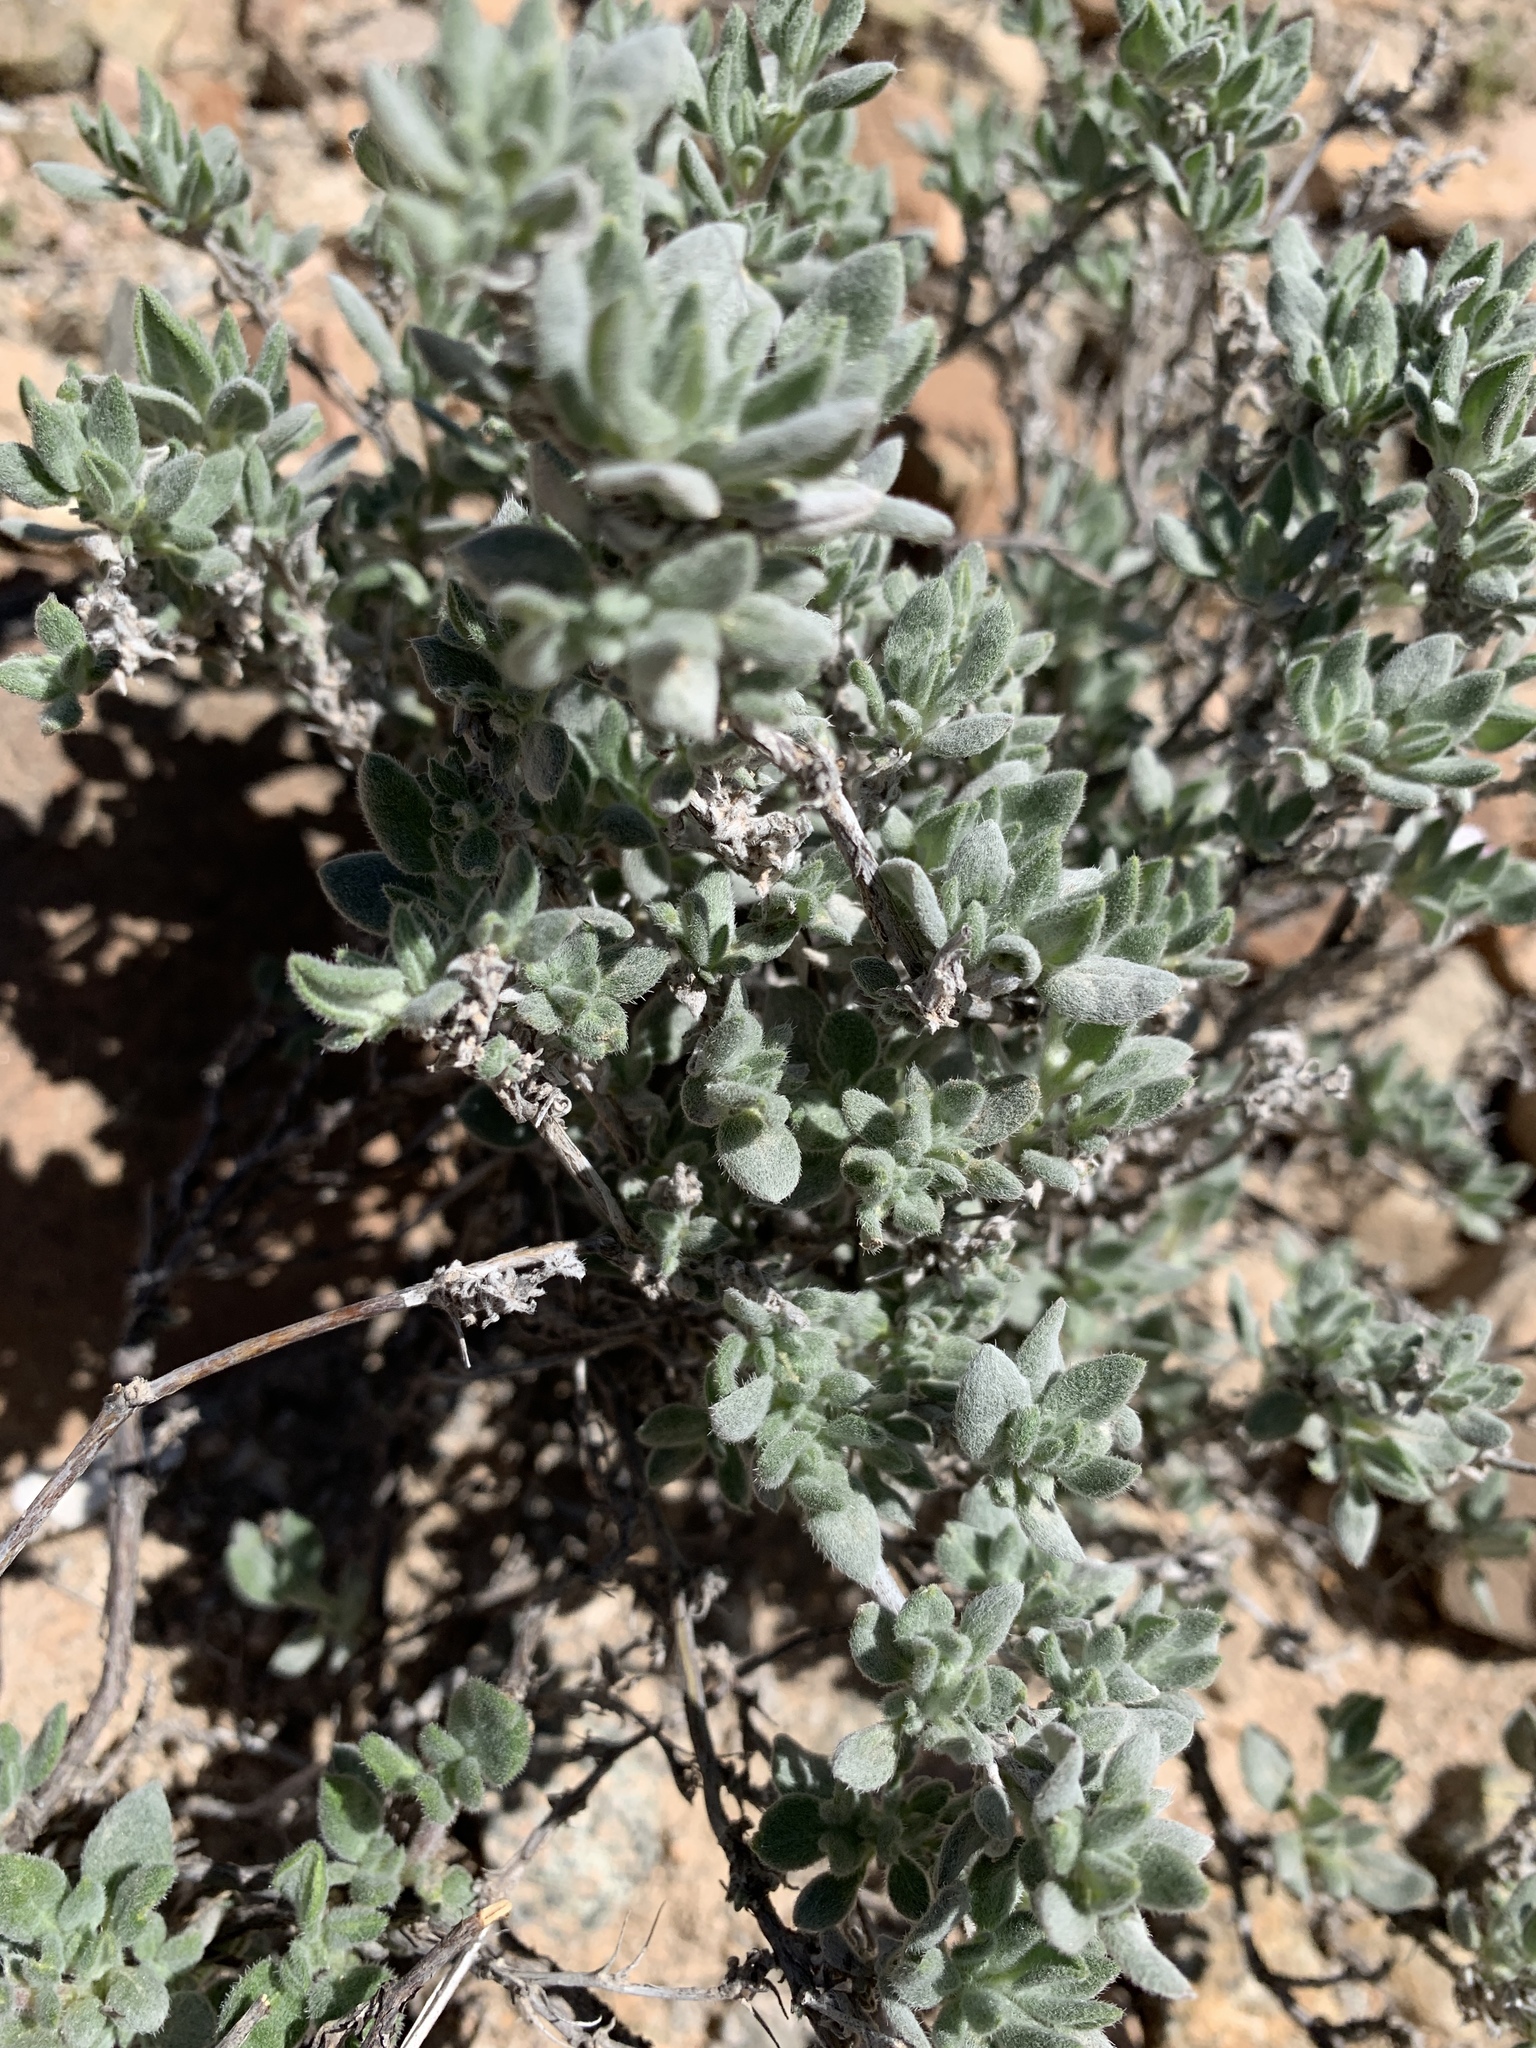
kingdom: Plantae
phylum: Tracheophyta
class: Magnoliopsida
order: Boraginales
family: Ehretiaceae
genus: Tiquilia
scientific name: Tiquilia canescens
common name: Hairy tiquilia
